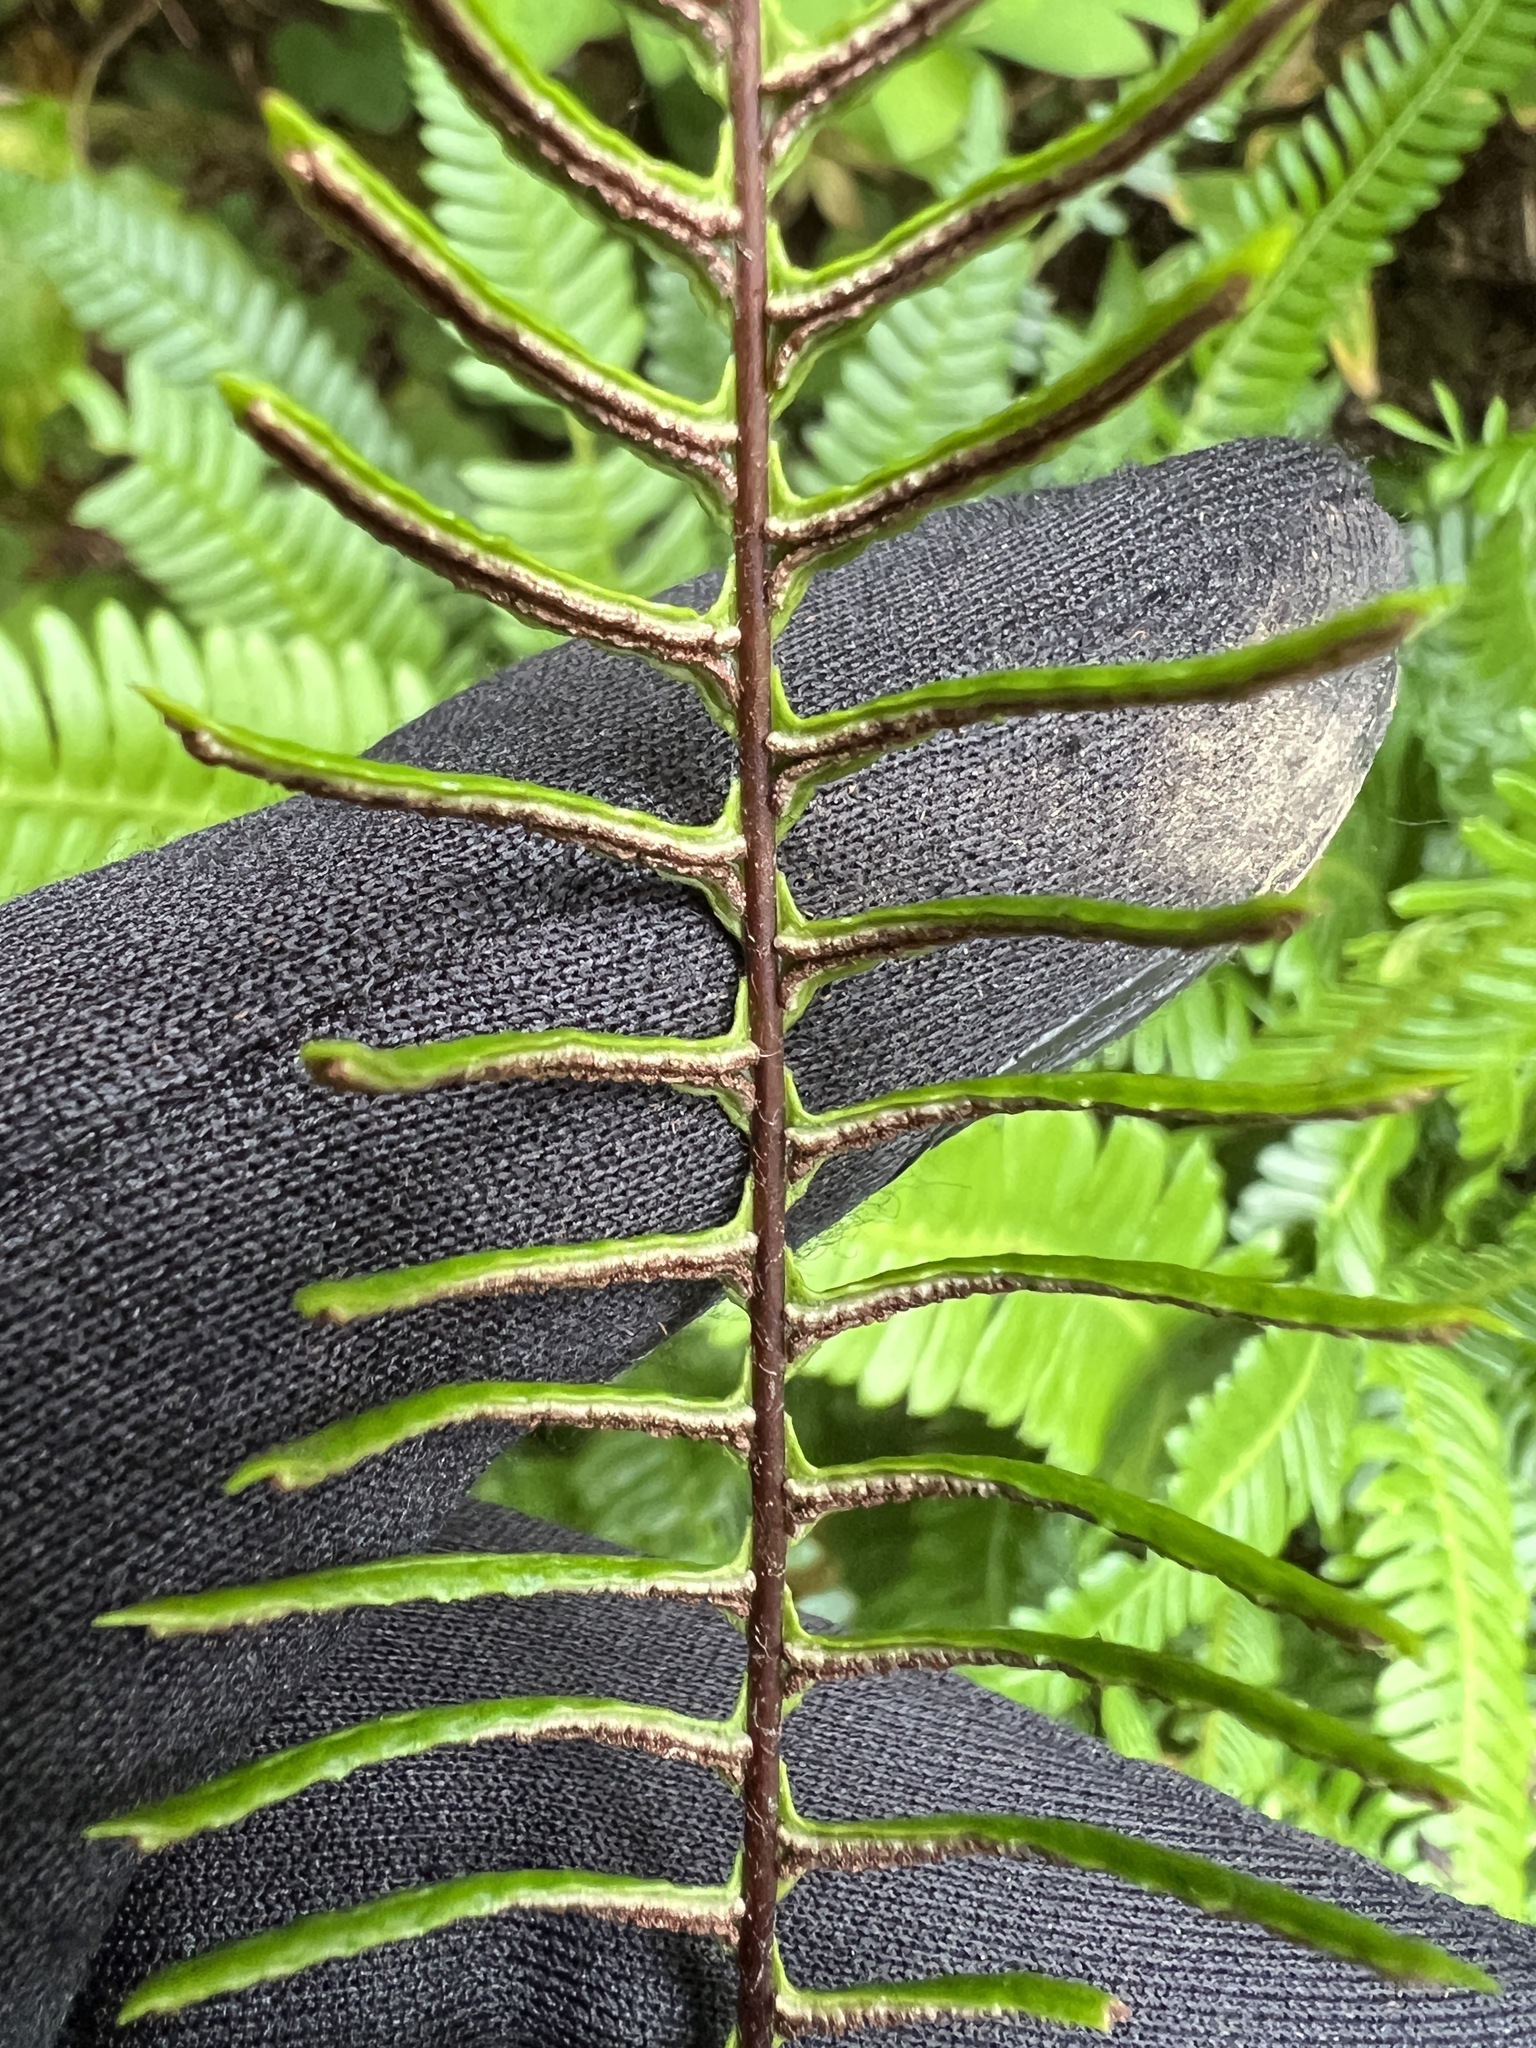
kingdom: Plantae
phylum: Tracheophyta
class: Polypodiopsida
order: Polypodiales
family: Blechnaceae
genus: Struthiopteris
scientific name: Struthiopteris spicant
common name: Deer fern
